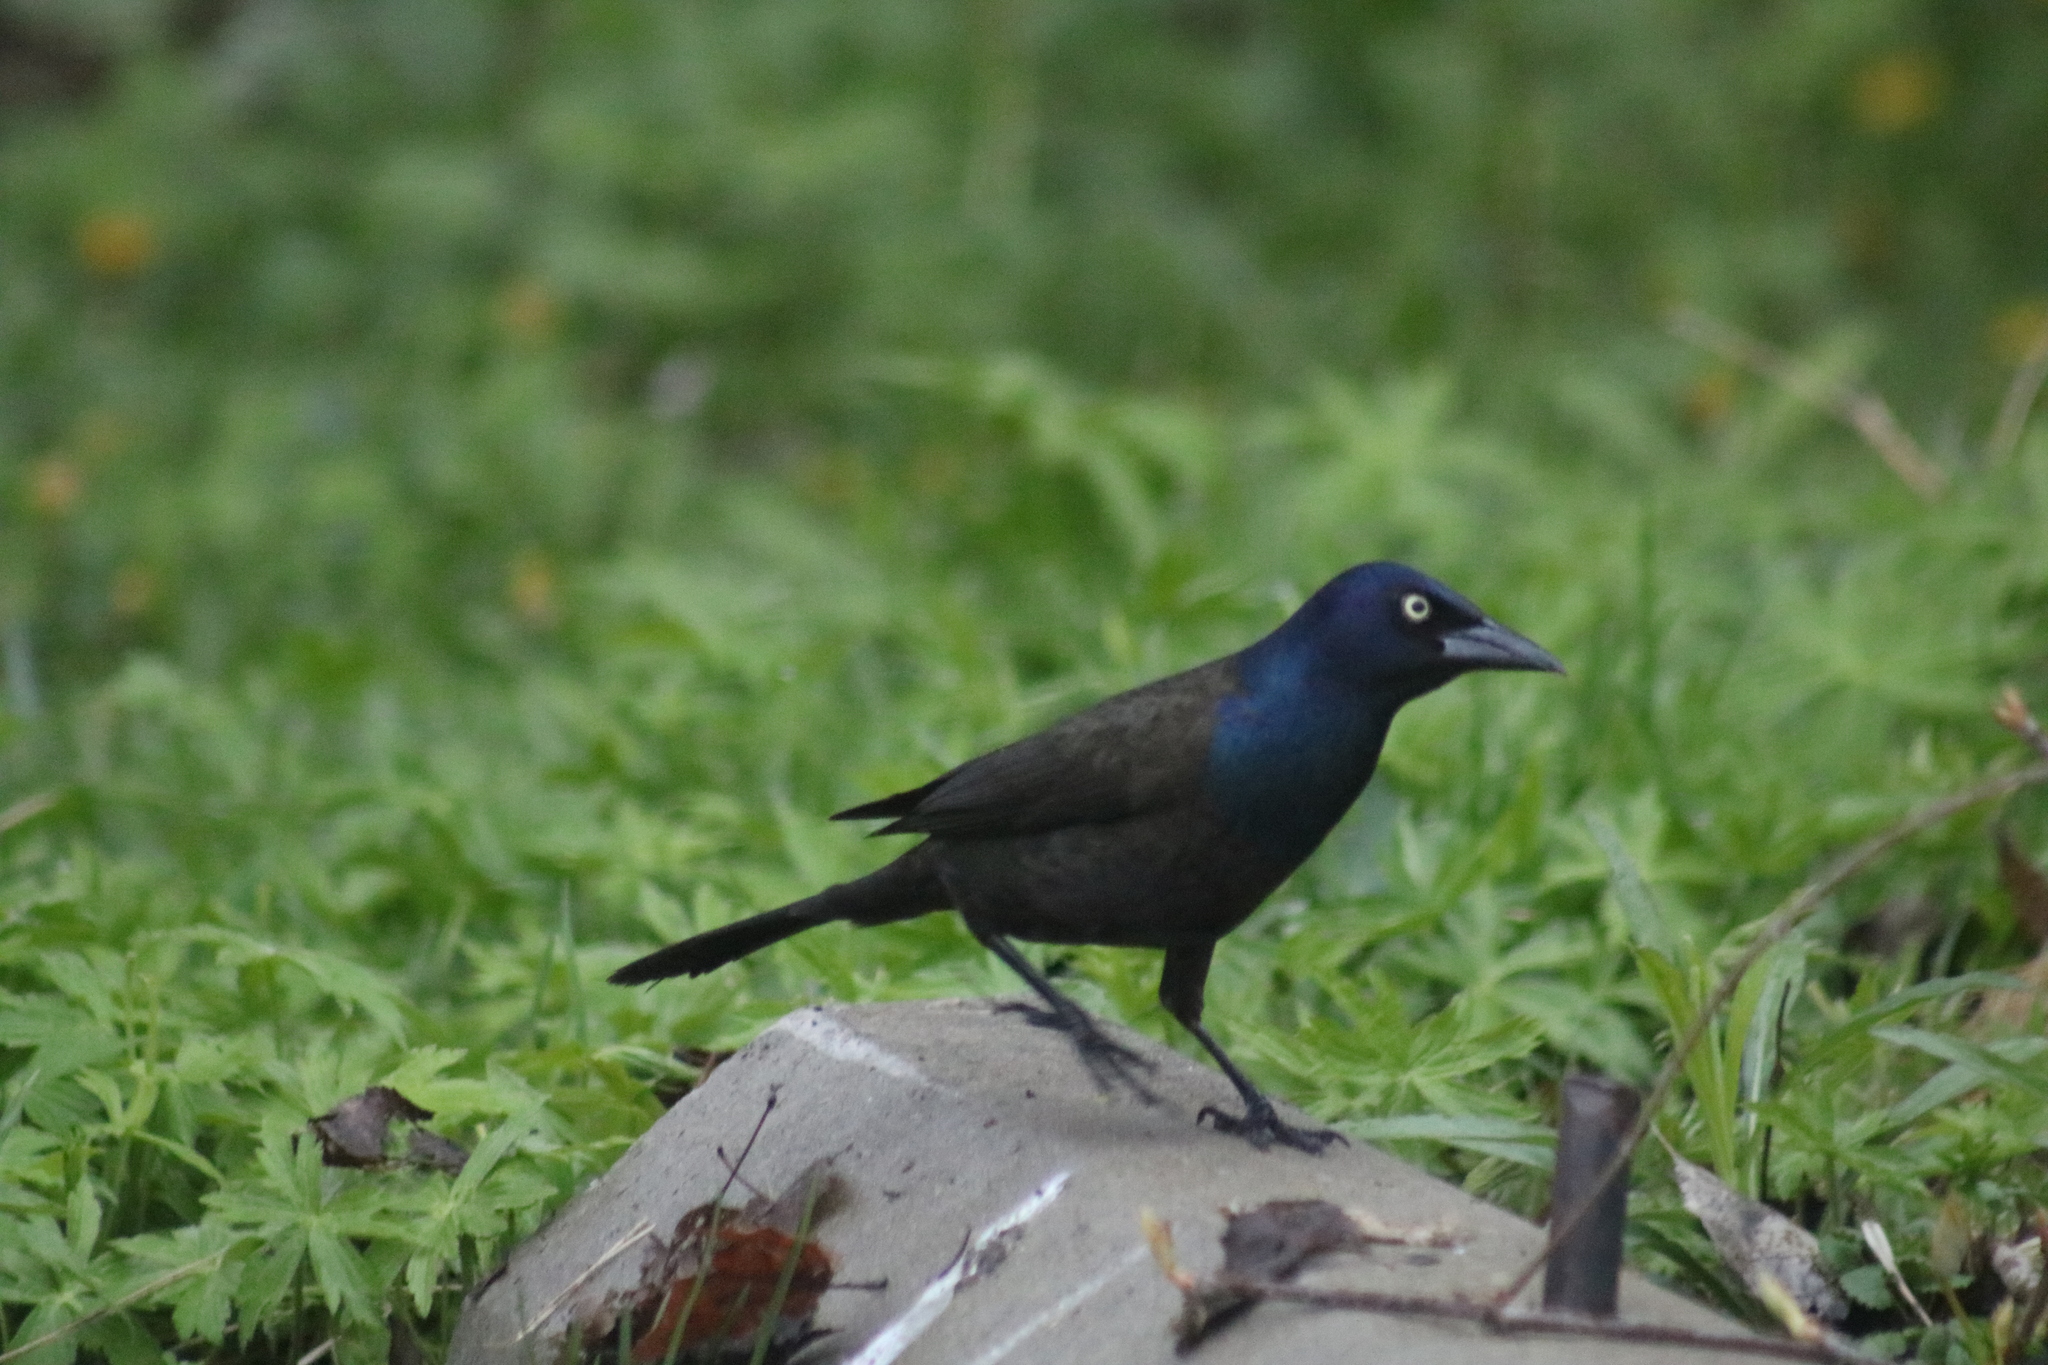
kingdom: Animalia
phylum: Chordata
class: Aves
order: Passeriformes
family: Icteridae
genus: Quiscalus
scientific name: Quiscalus quiscula
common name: Common grackle
